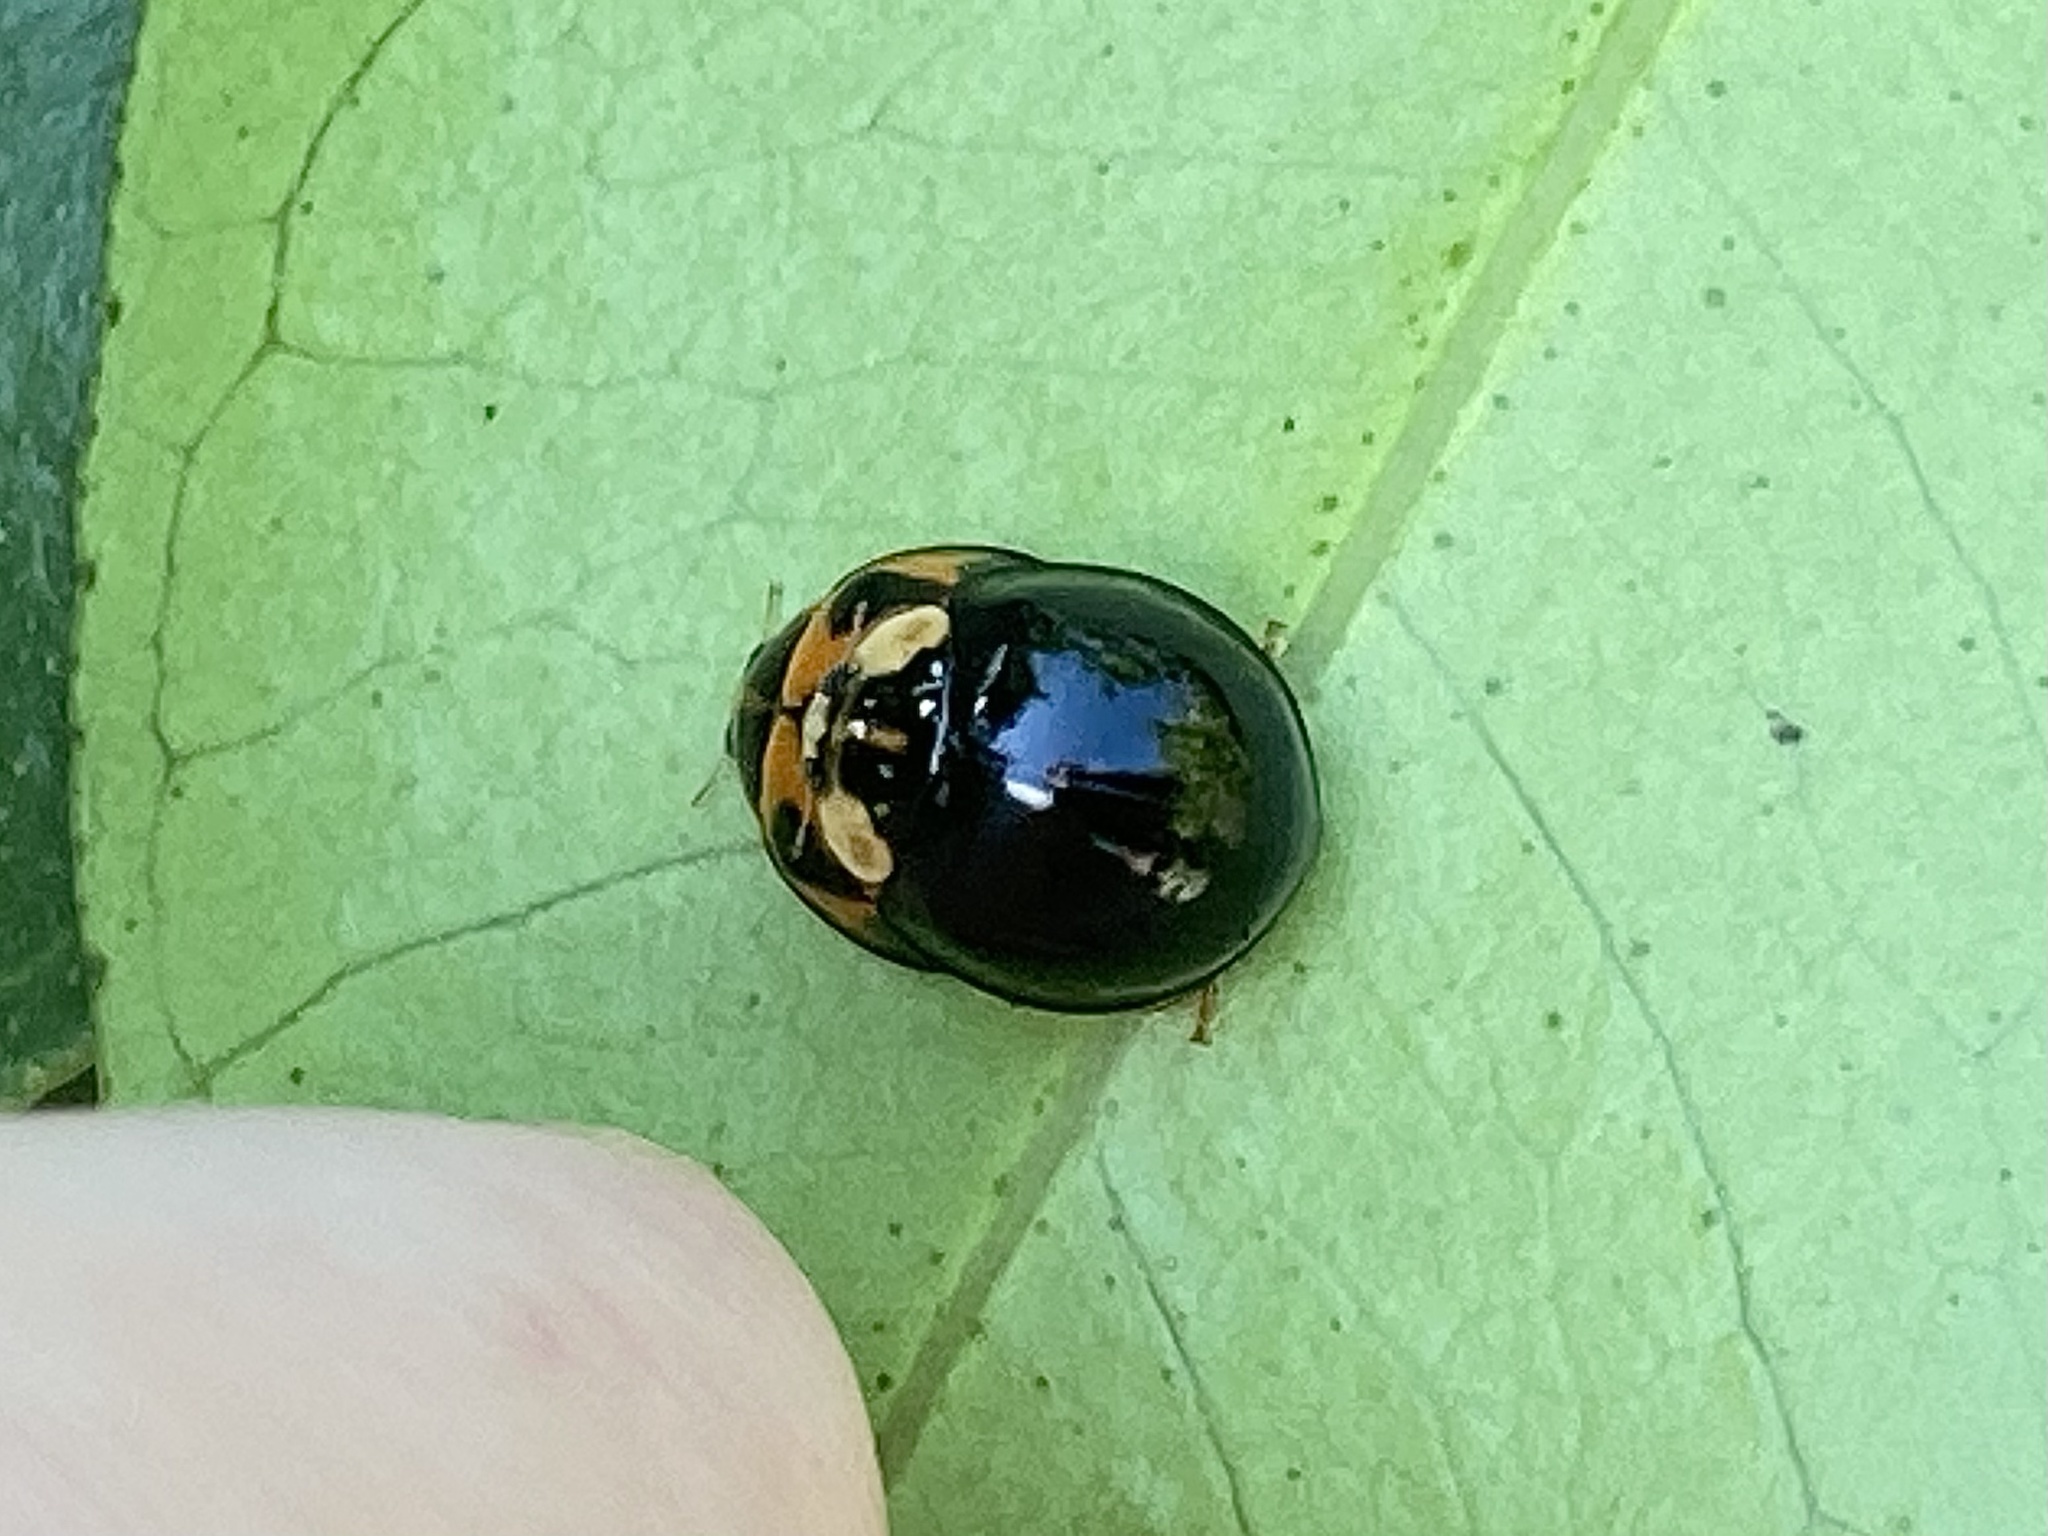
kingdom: Animalia
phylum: Arthropoda
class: Insecta
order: Coleoptera
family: Coccinellidae
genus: Coelophora
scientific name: Coelophora inaequalis
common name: Common australian lady beetle
